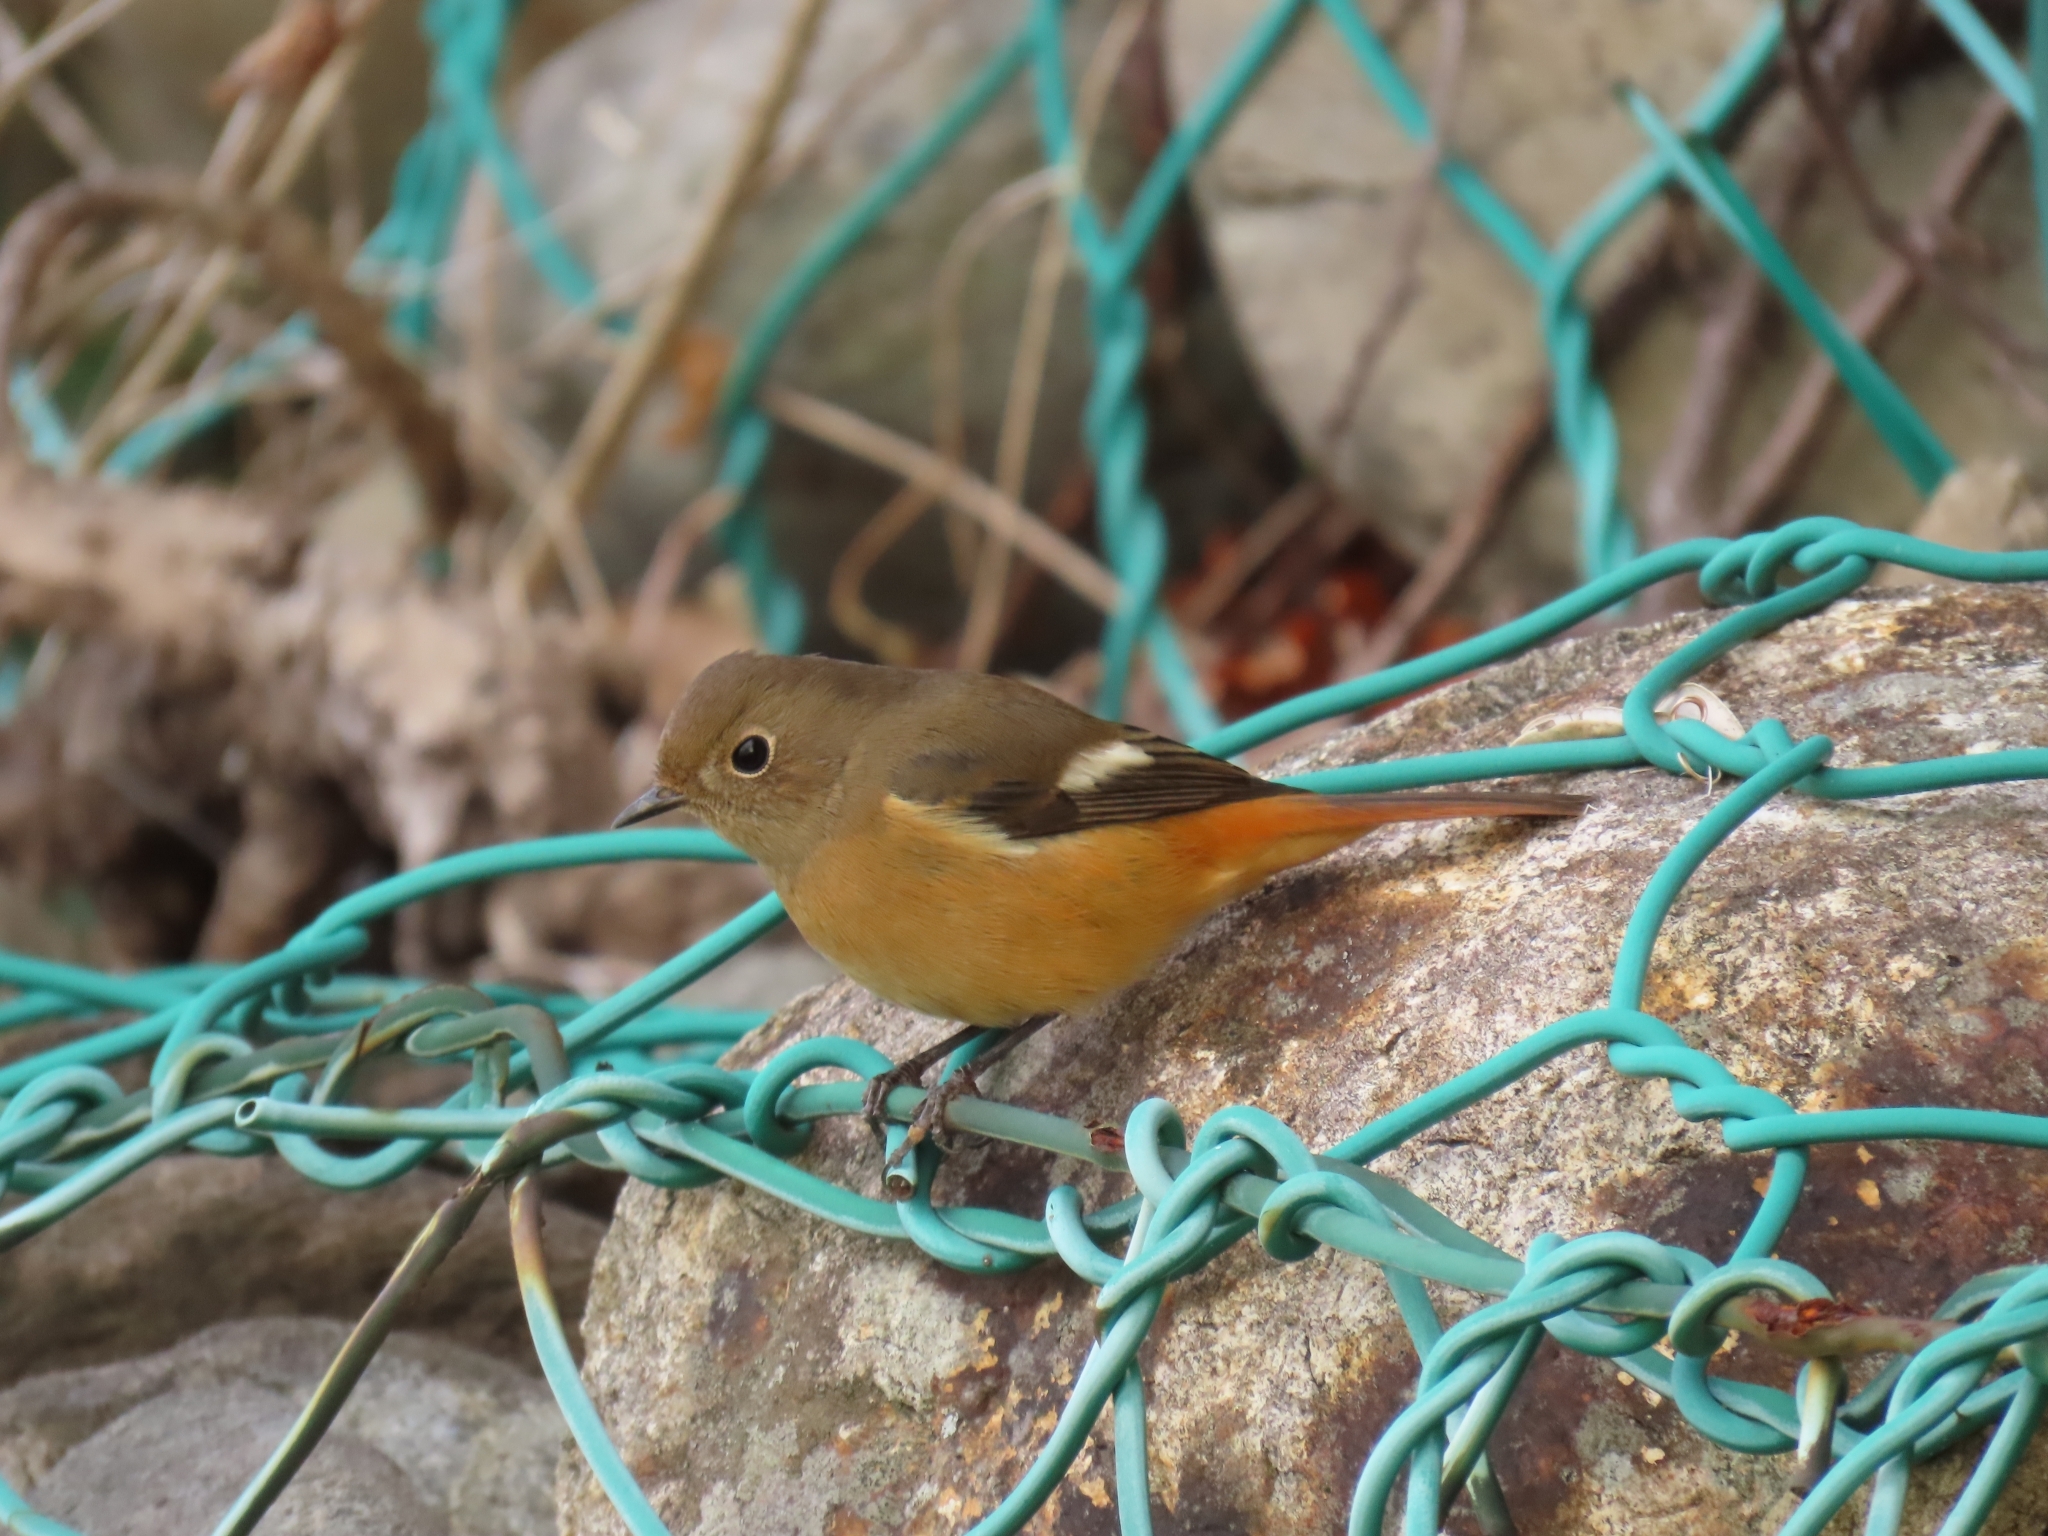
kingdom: Animalia
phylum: Chordata
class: Aves
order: Passeriformes
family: Muscicapidae
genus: Phoenicurus
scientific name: Phoenicurus auroreus
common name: Daurian redstart
